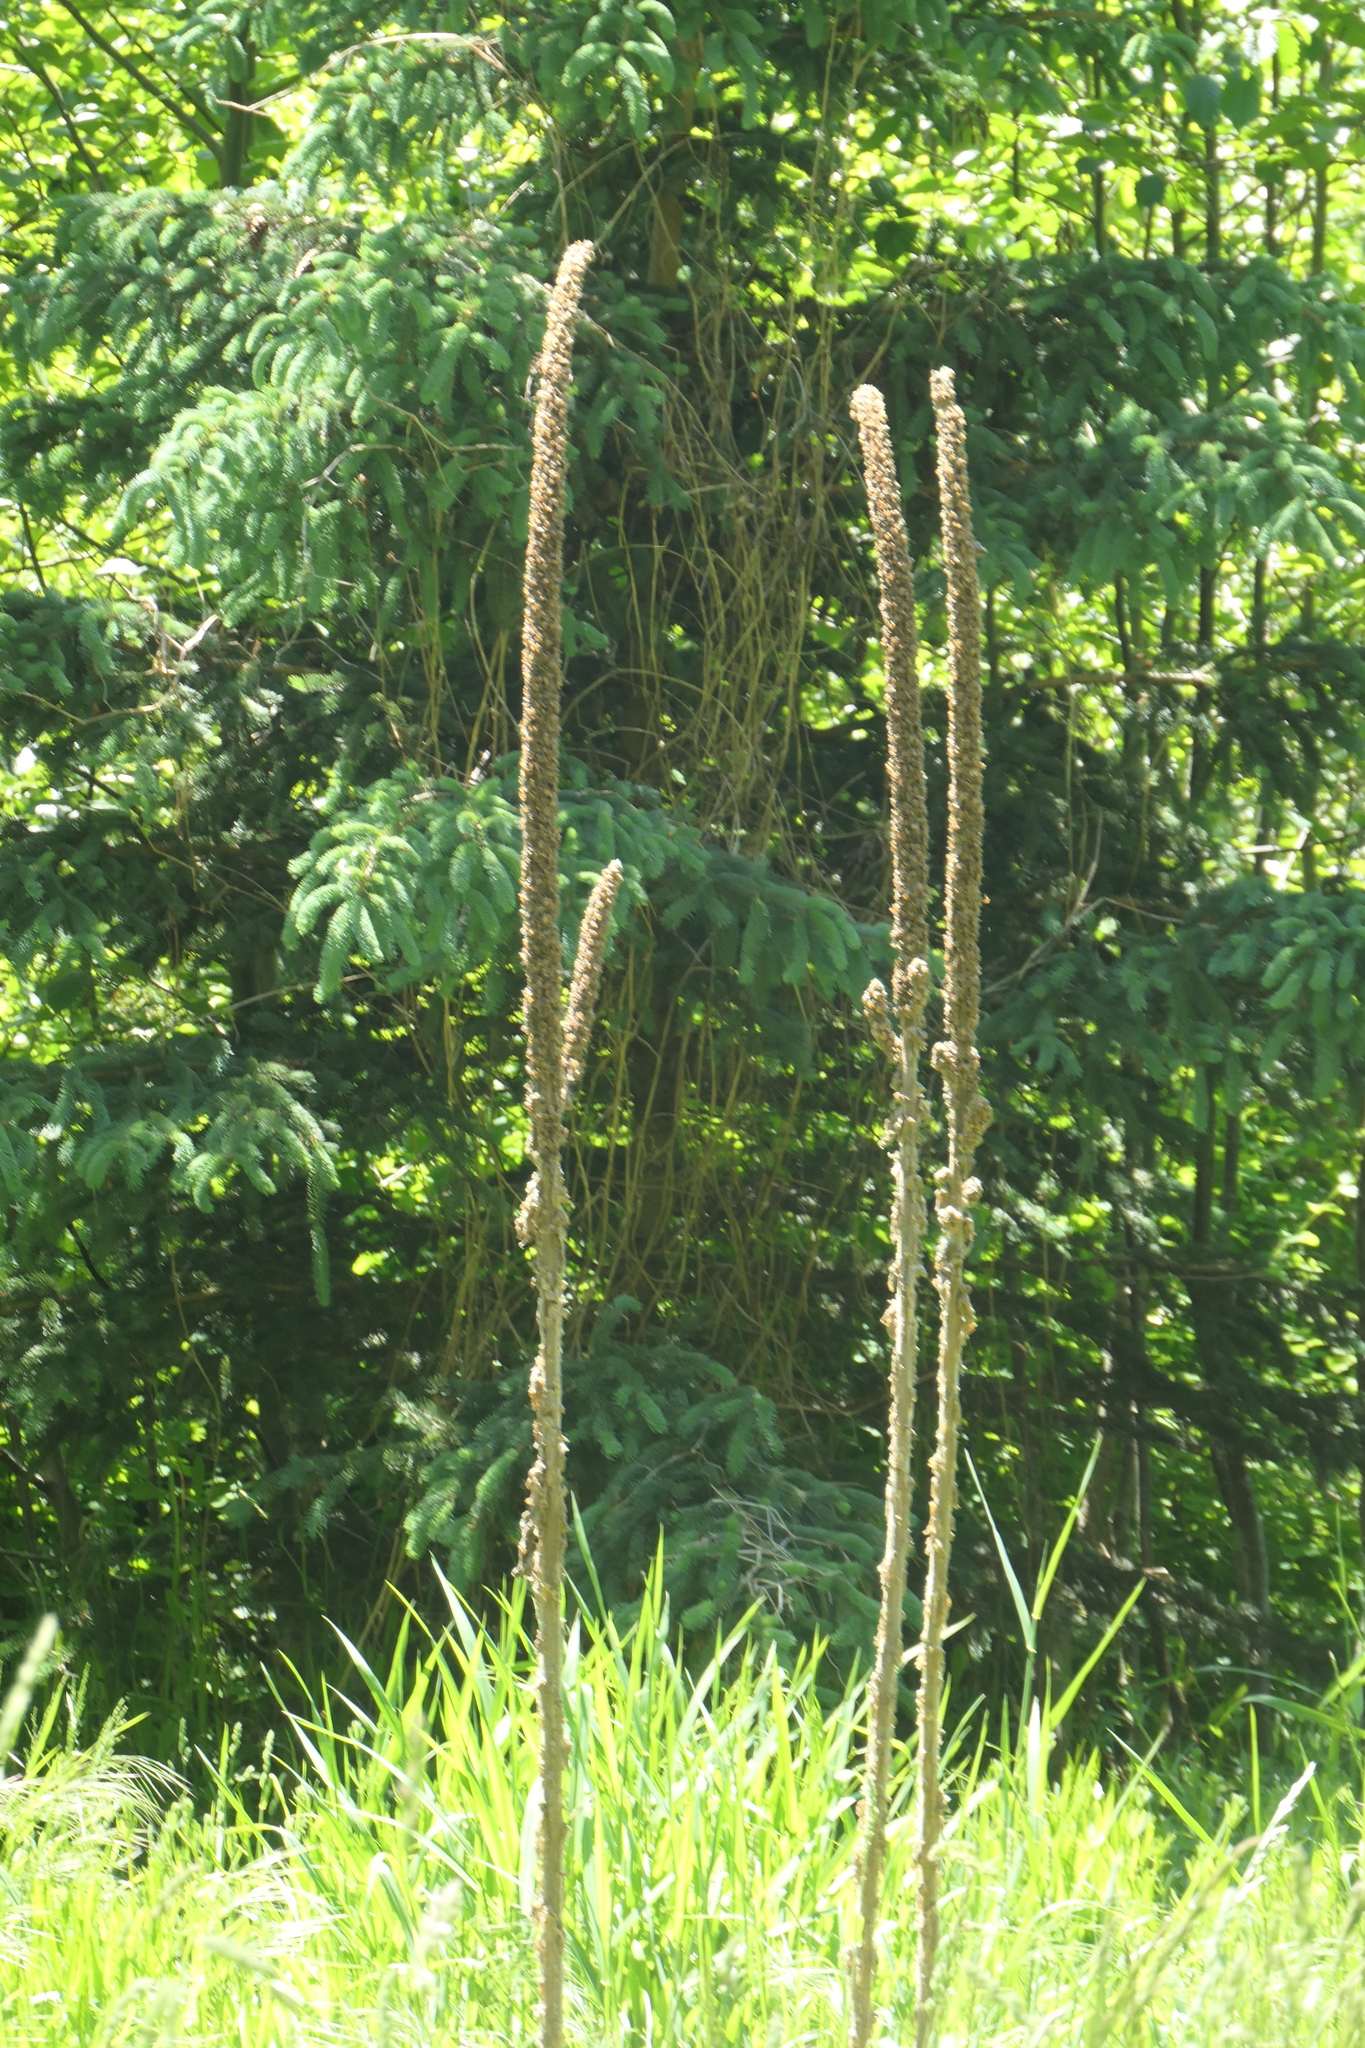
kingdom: Plantae
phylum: Tracheophyta
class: Magnoliopsida
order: Lamiales
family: Scrophulariaceae
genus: Verbascum
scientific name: Verbascum thapsus
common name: Common mullein
